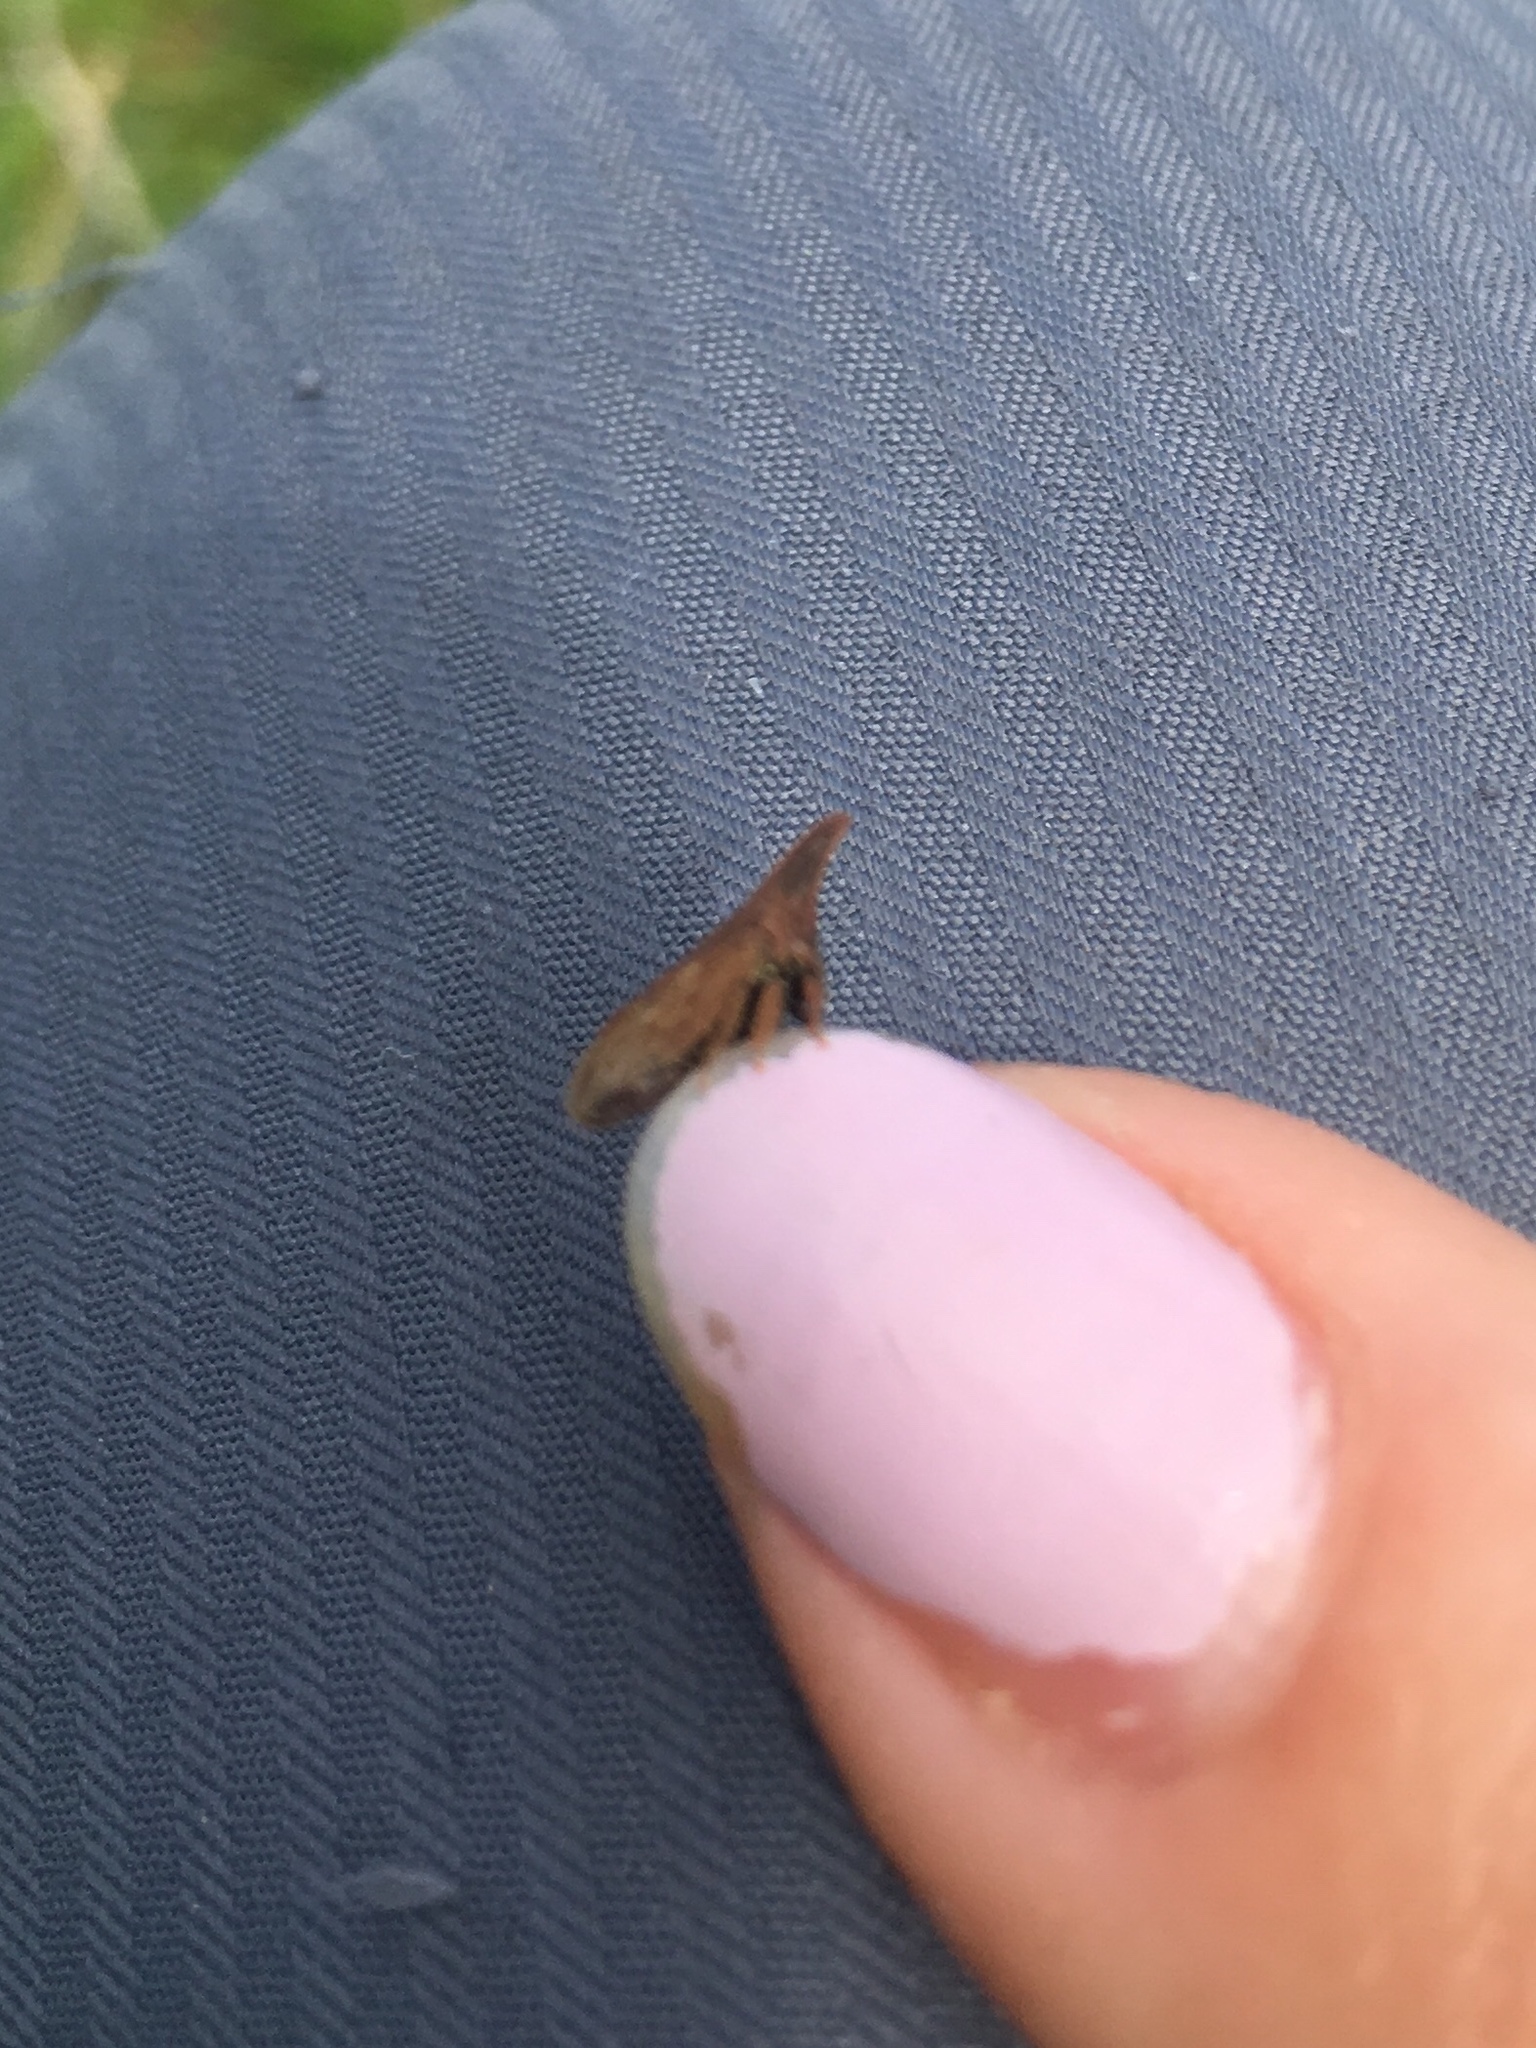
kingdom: Animalia
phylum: Arthropoda
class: Insecta
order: Hemiptera
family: Membracidae
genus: Enchenopa
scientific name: Enchenopa latipes
